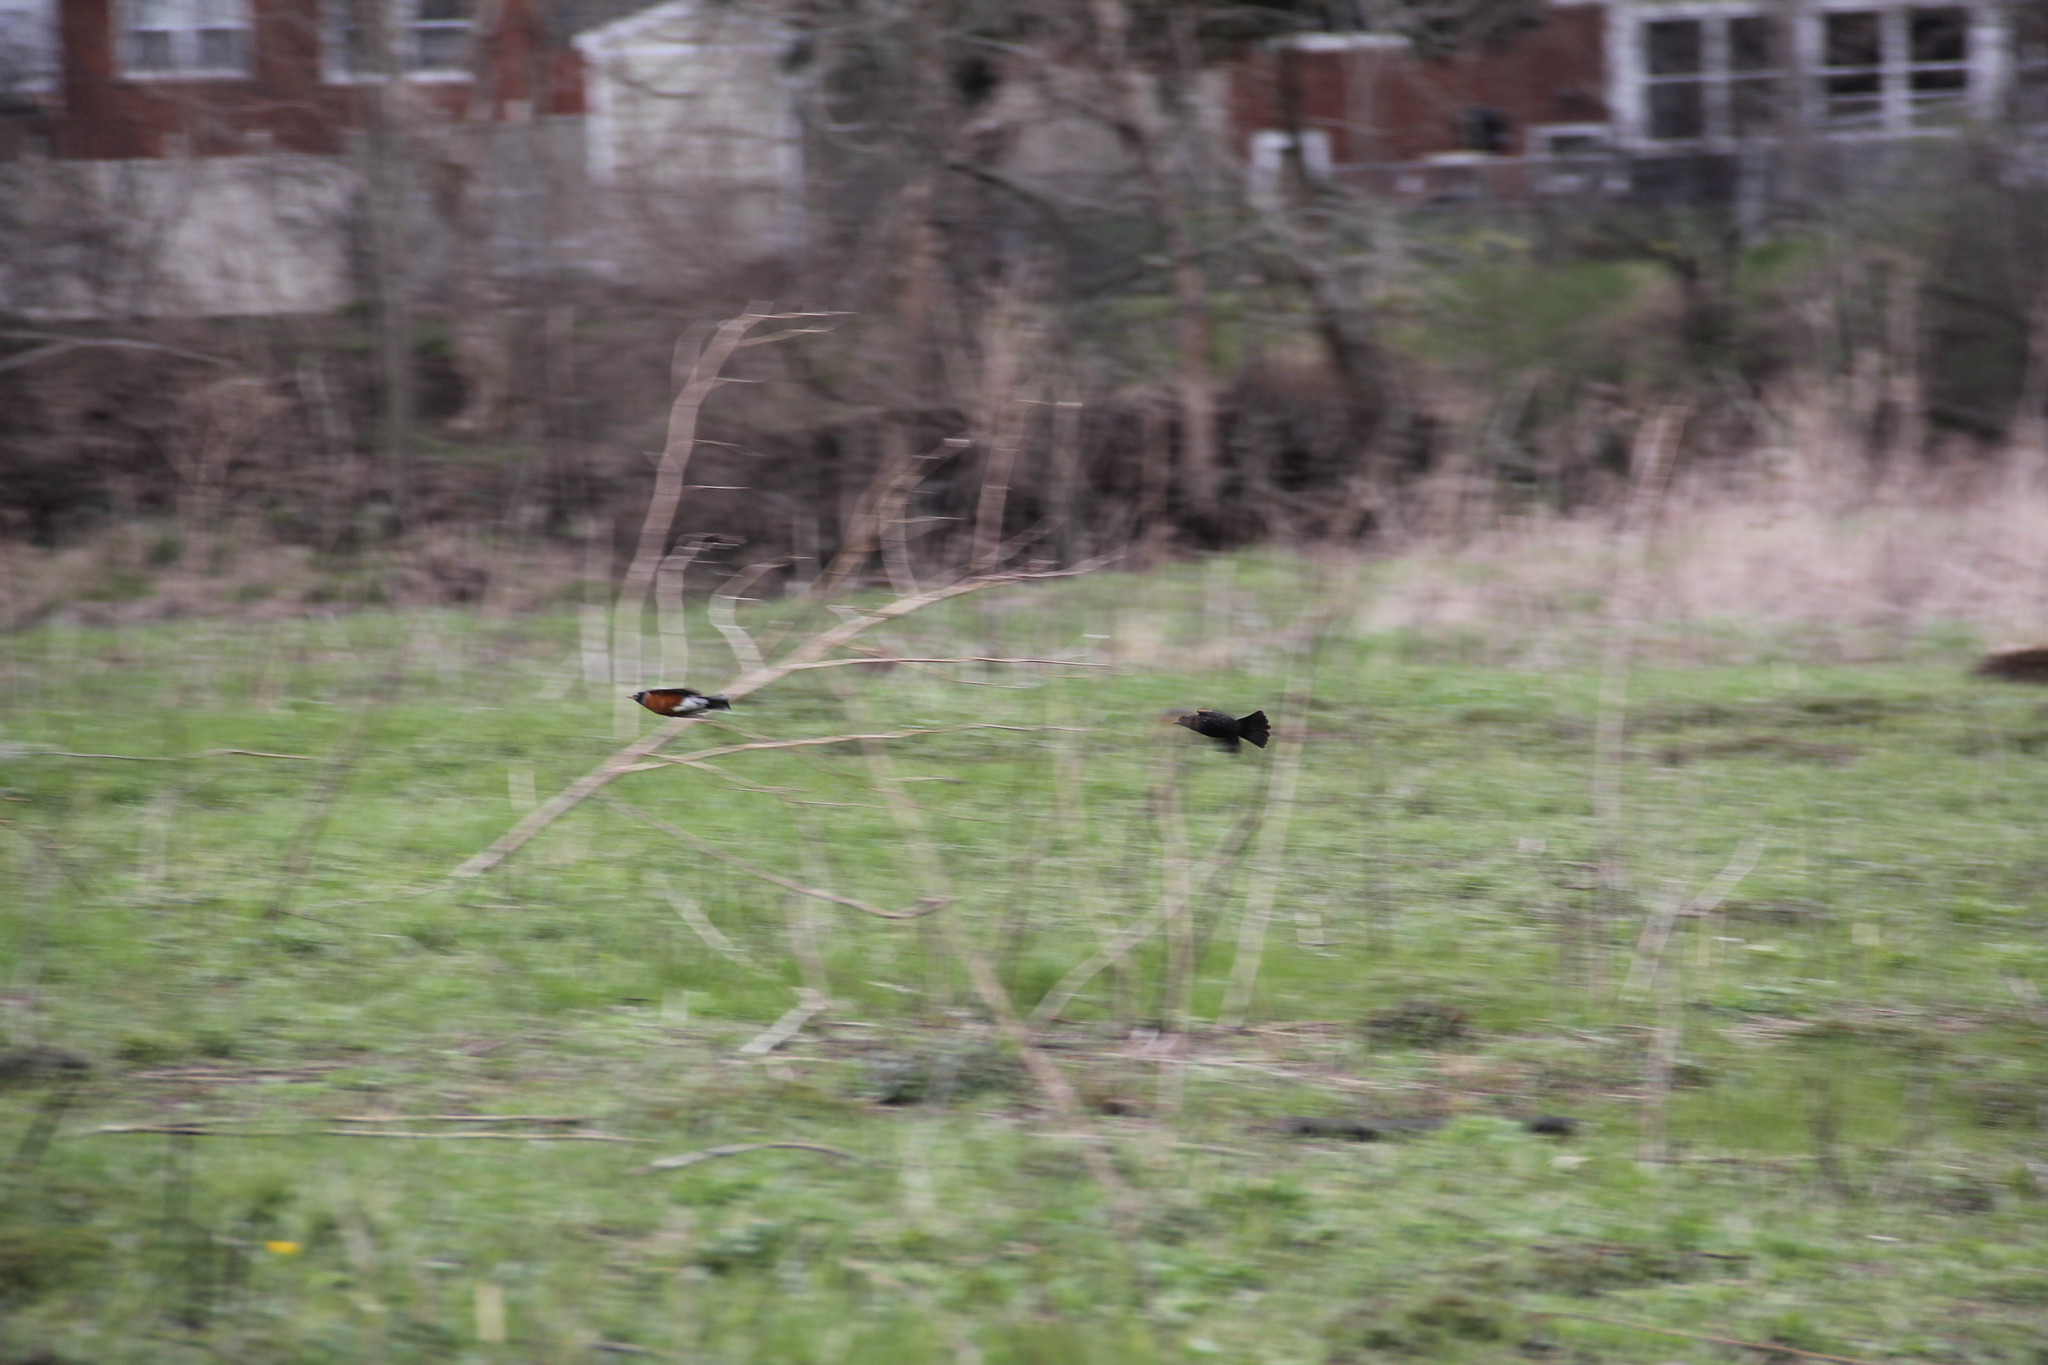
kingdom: Animalia
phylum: Chordata
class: Aves
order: Passeriformes
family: Turdidae
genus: Turdus
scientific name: Turdus migratorius
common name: American robin
